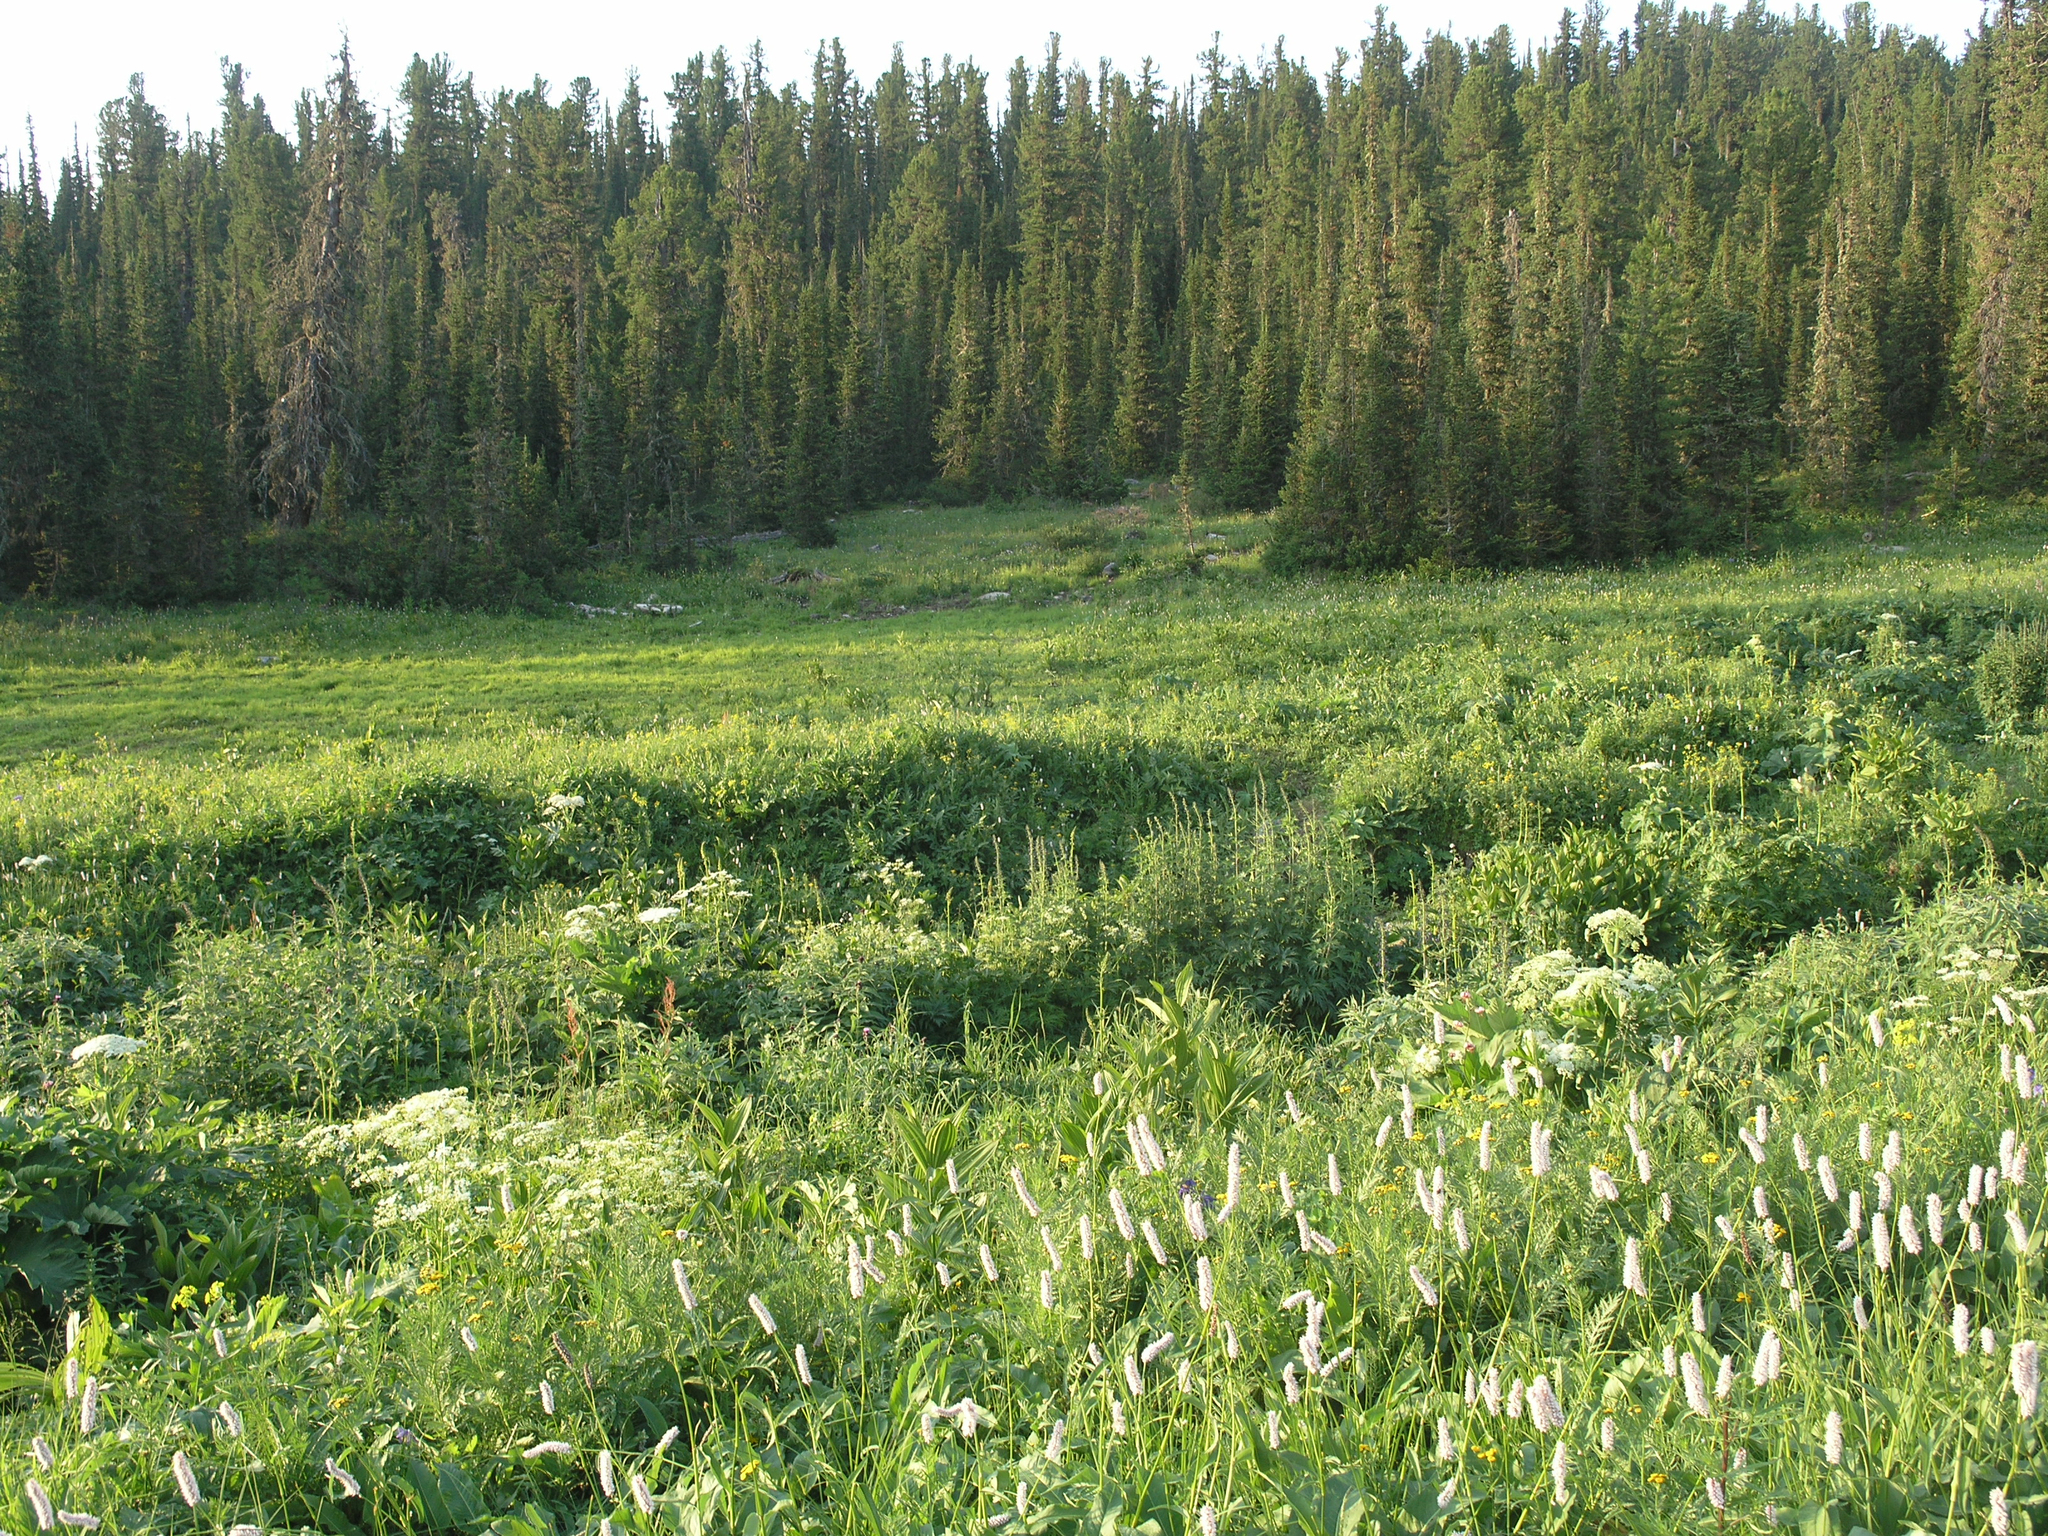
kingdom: Plantae
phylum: Tracheophyta
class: Pinopsida
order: Pinales
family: Pinaceae
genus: Abies
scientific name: Abies sibirica
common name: Siberian fir
